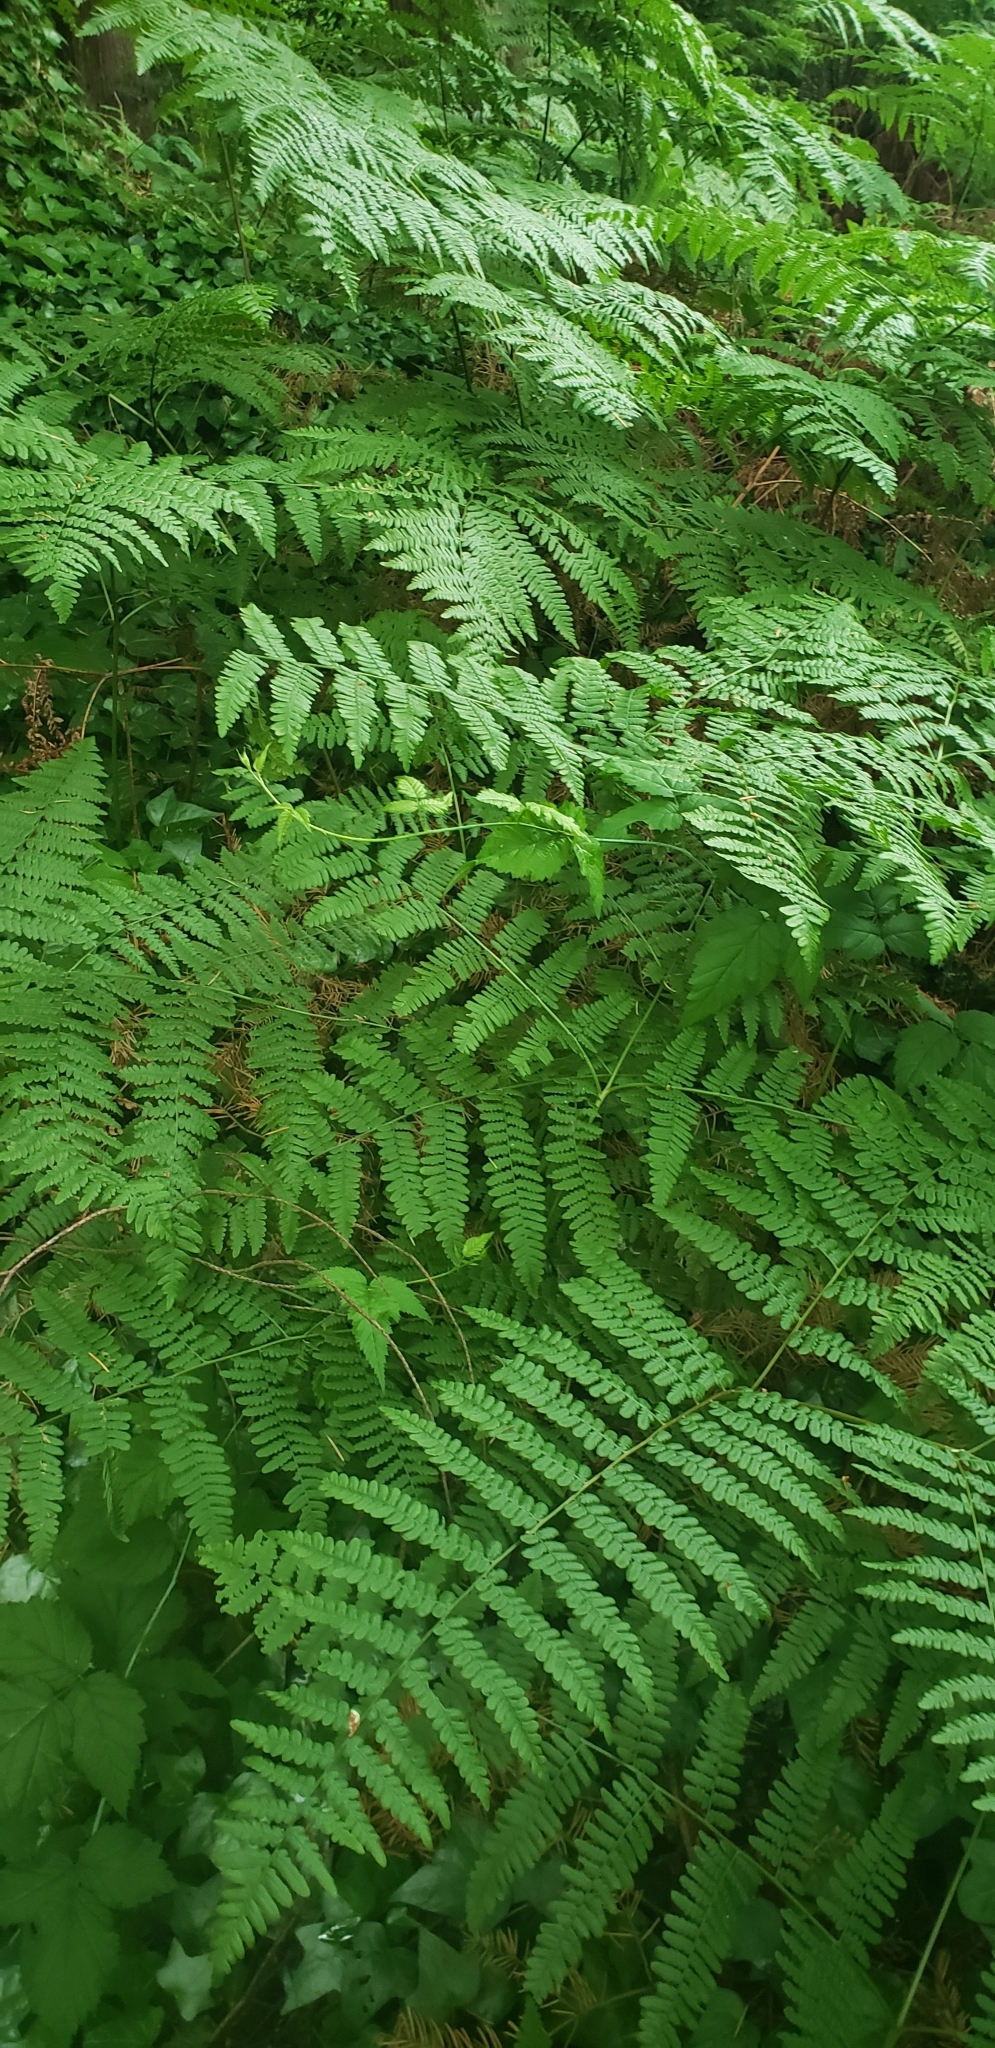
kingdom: Plantae
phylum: Tracheophyta
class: Polypodiopsida
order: Polypodiales
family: Dennstaedtiaceae
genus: Pteridium
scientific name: Pteridium aquilinum
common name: Bracken
